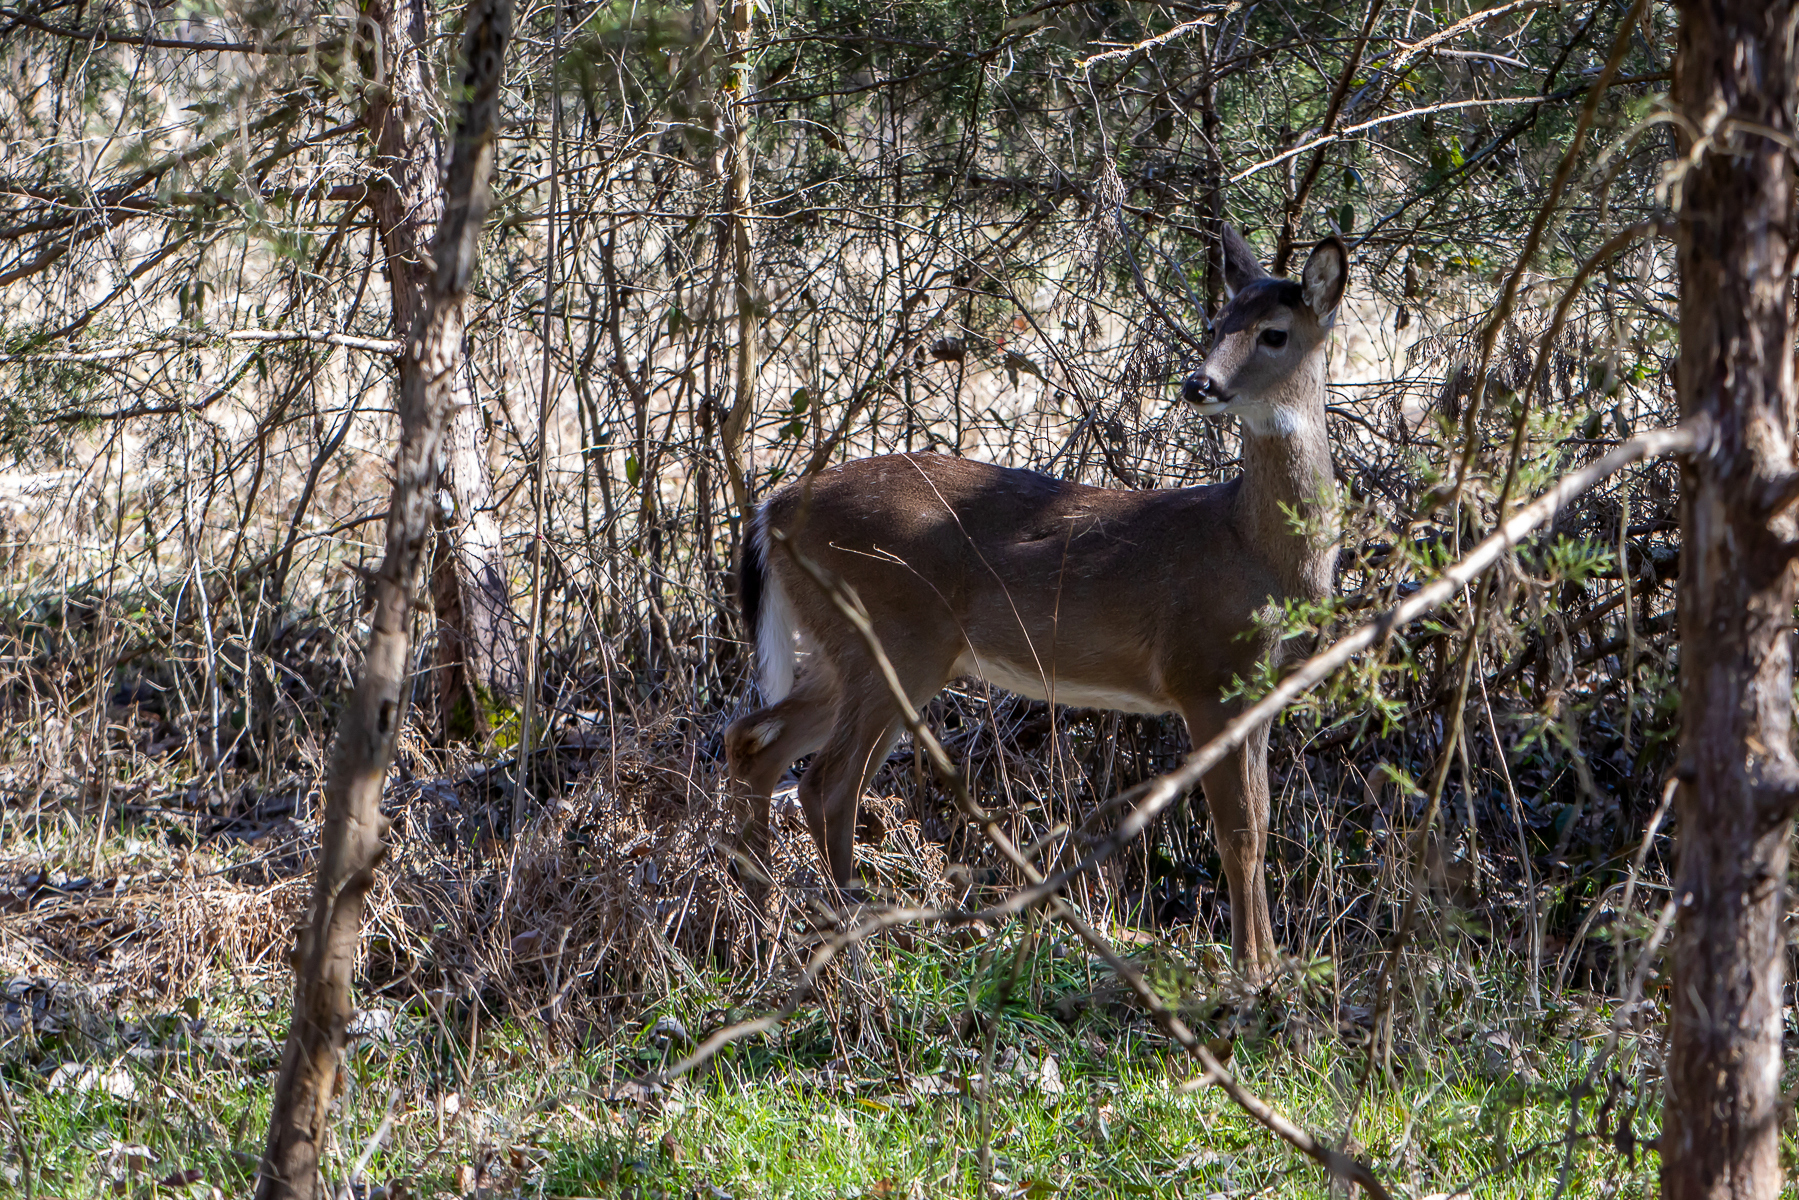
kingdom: Animalia
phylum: Chordata
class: Mammalia
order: Artiodactyla
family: Cervidae
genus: Odocoileus
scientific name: Odocoileus virginianus
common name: White-tailed deer
